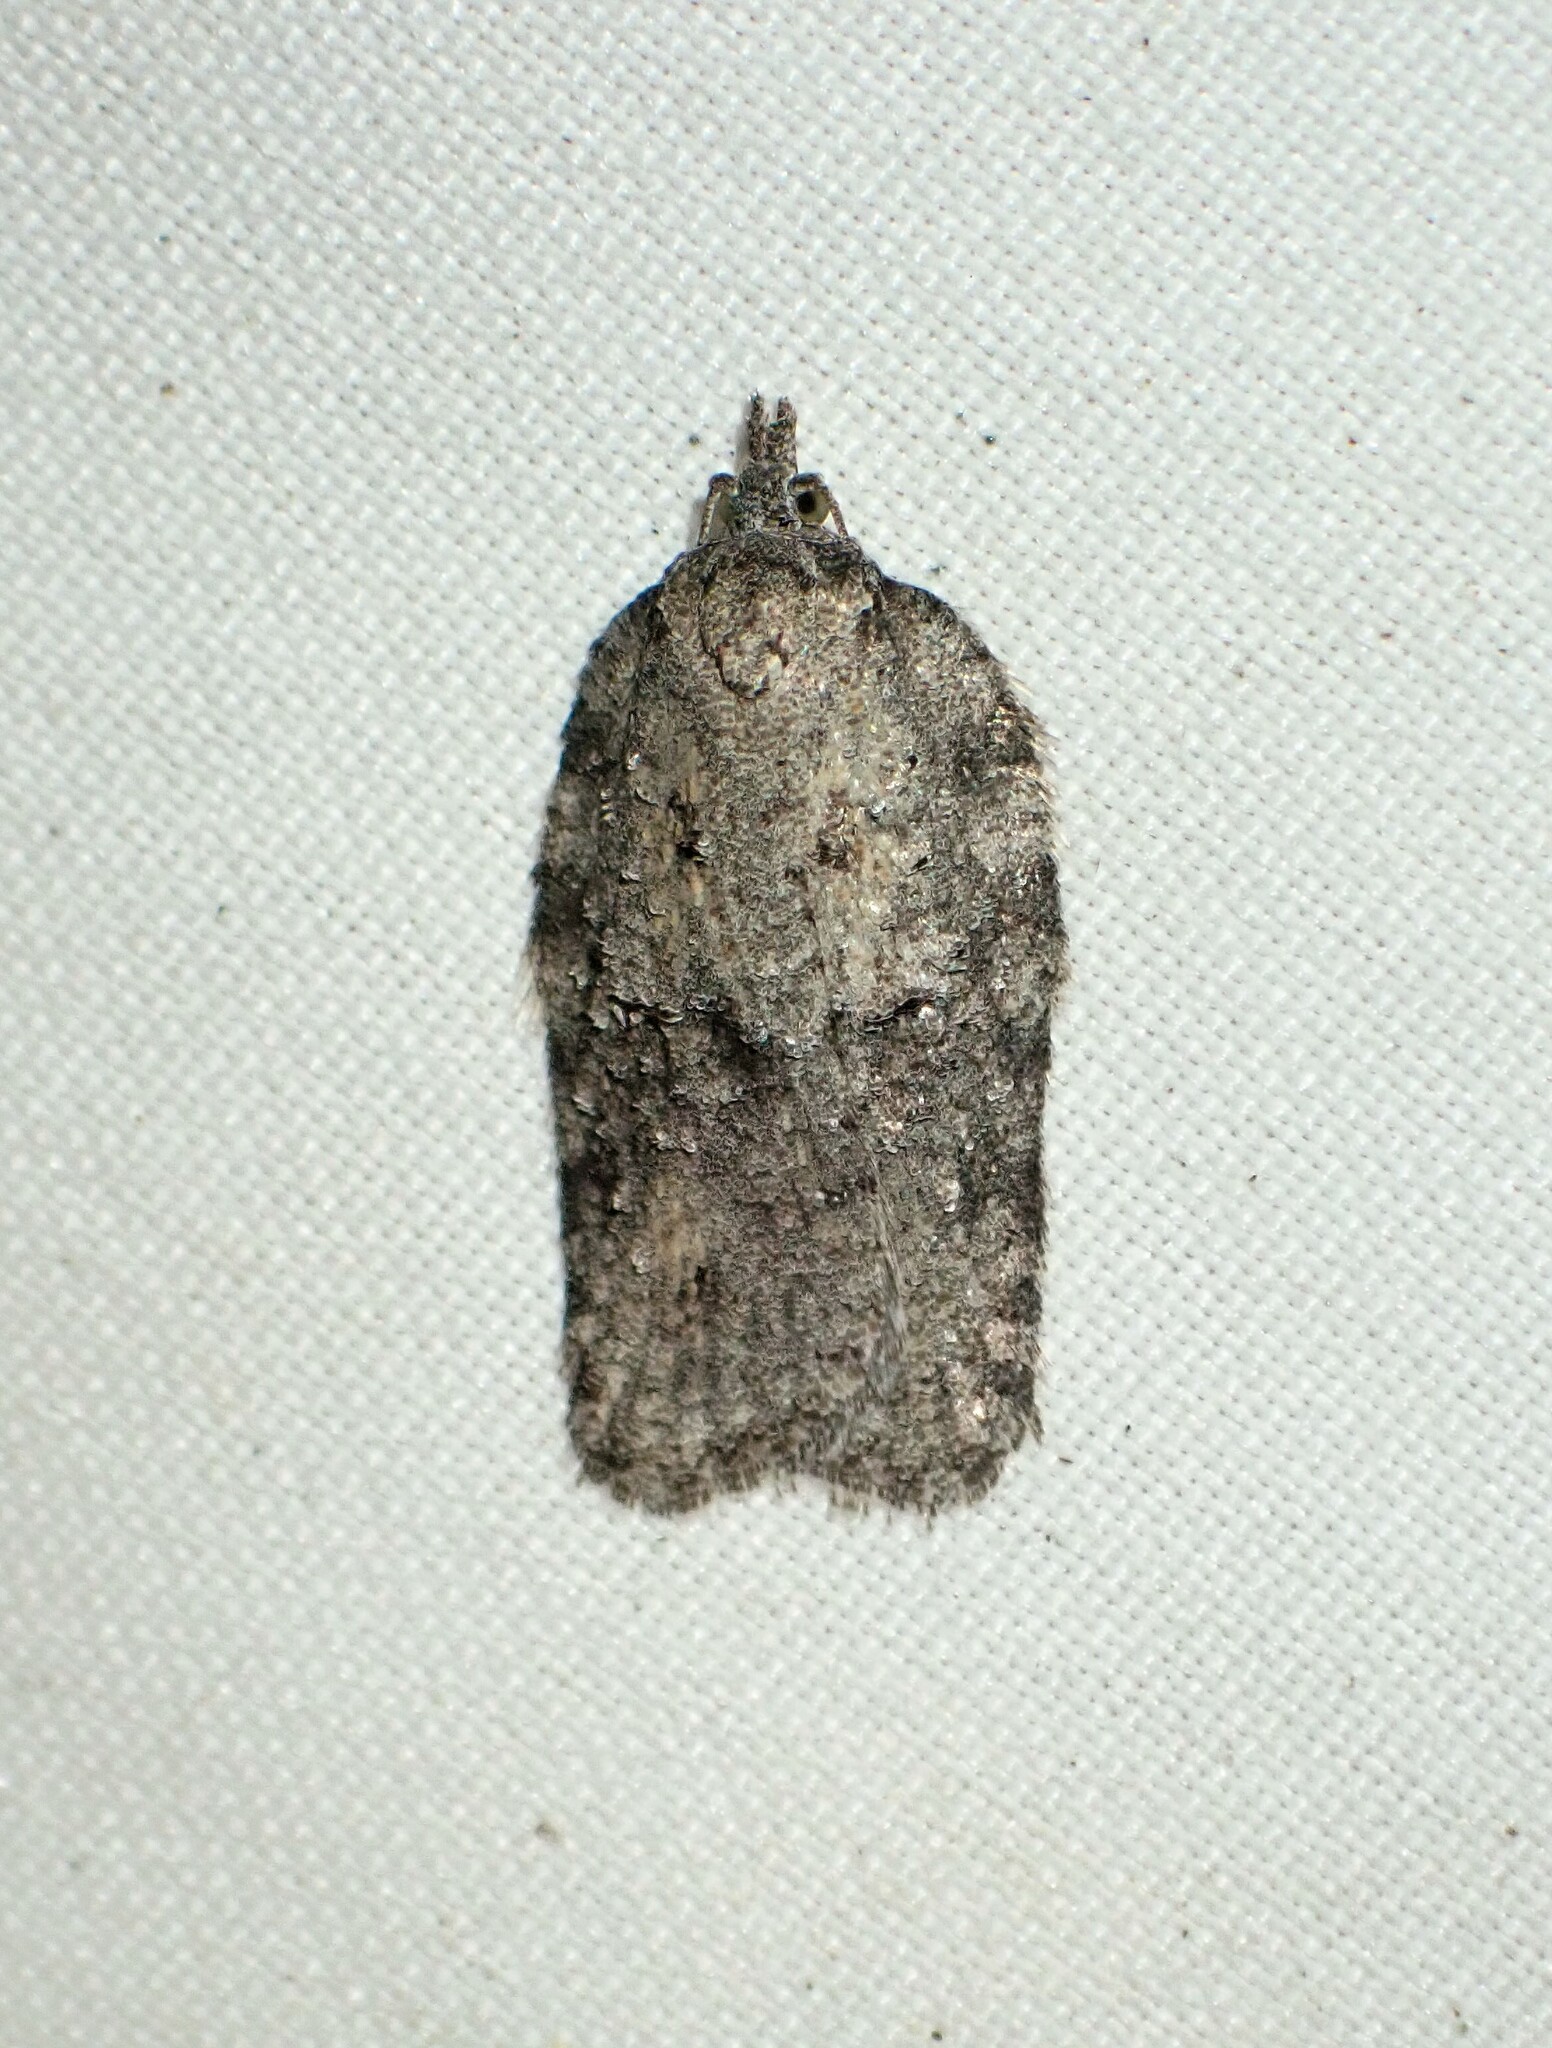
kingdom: Animalia
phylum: Arthropoda
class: Insecta
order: Lepidoptera
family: Tortricidae
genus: Acleris
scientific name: Acleris nigrolinea
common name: Black-lined acleris
